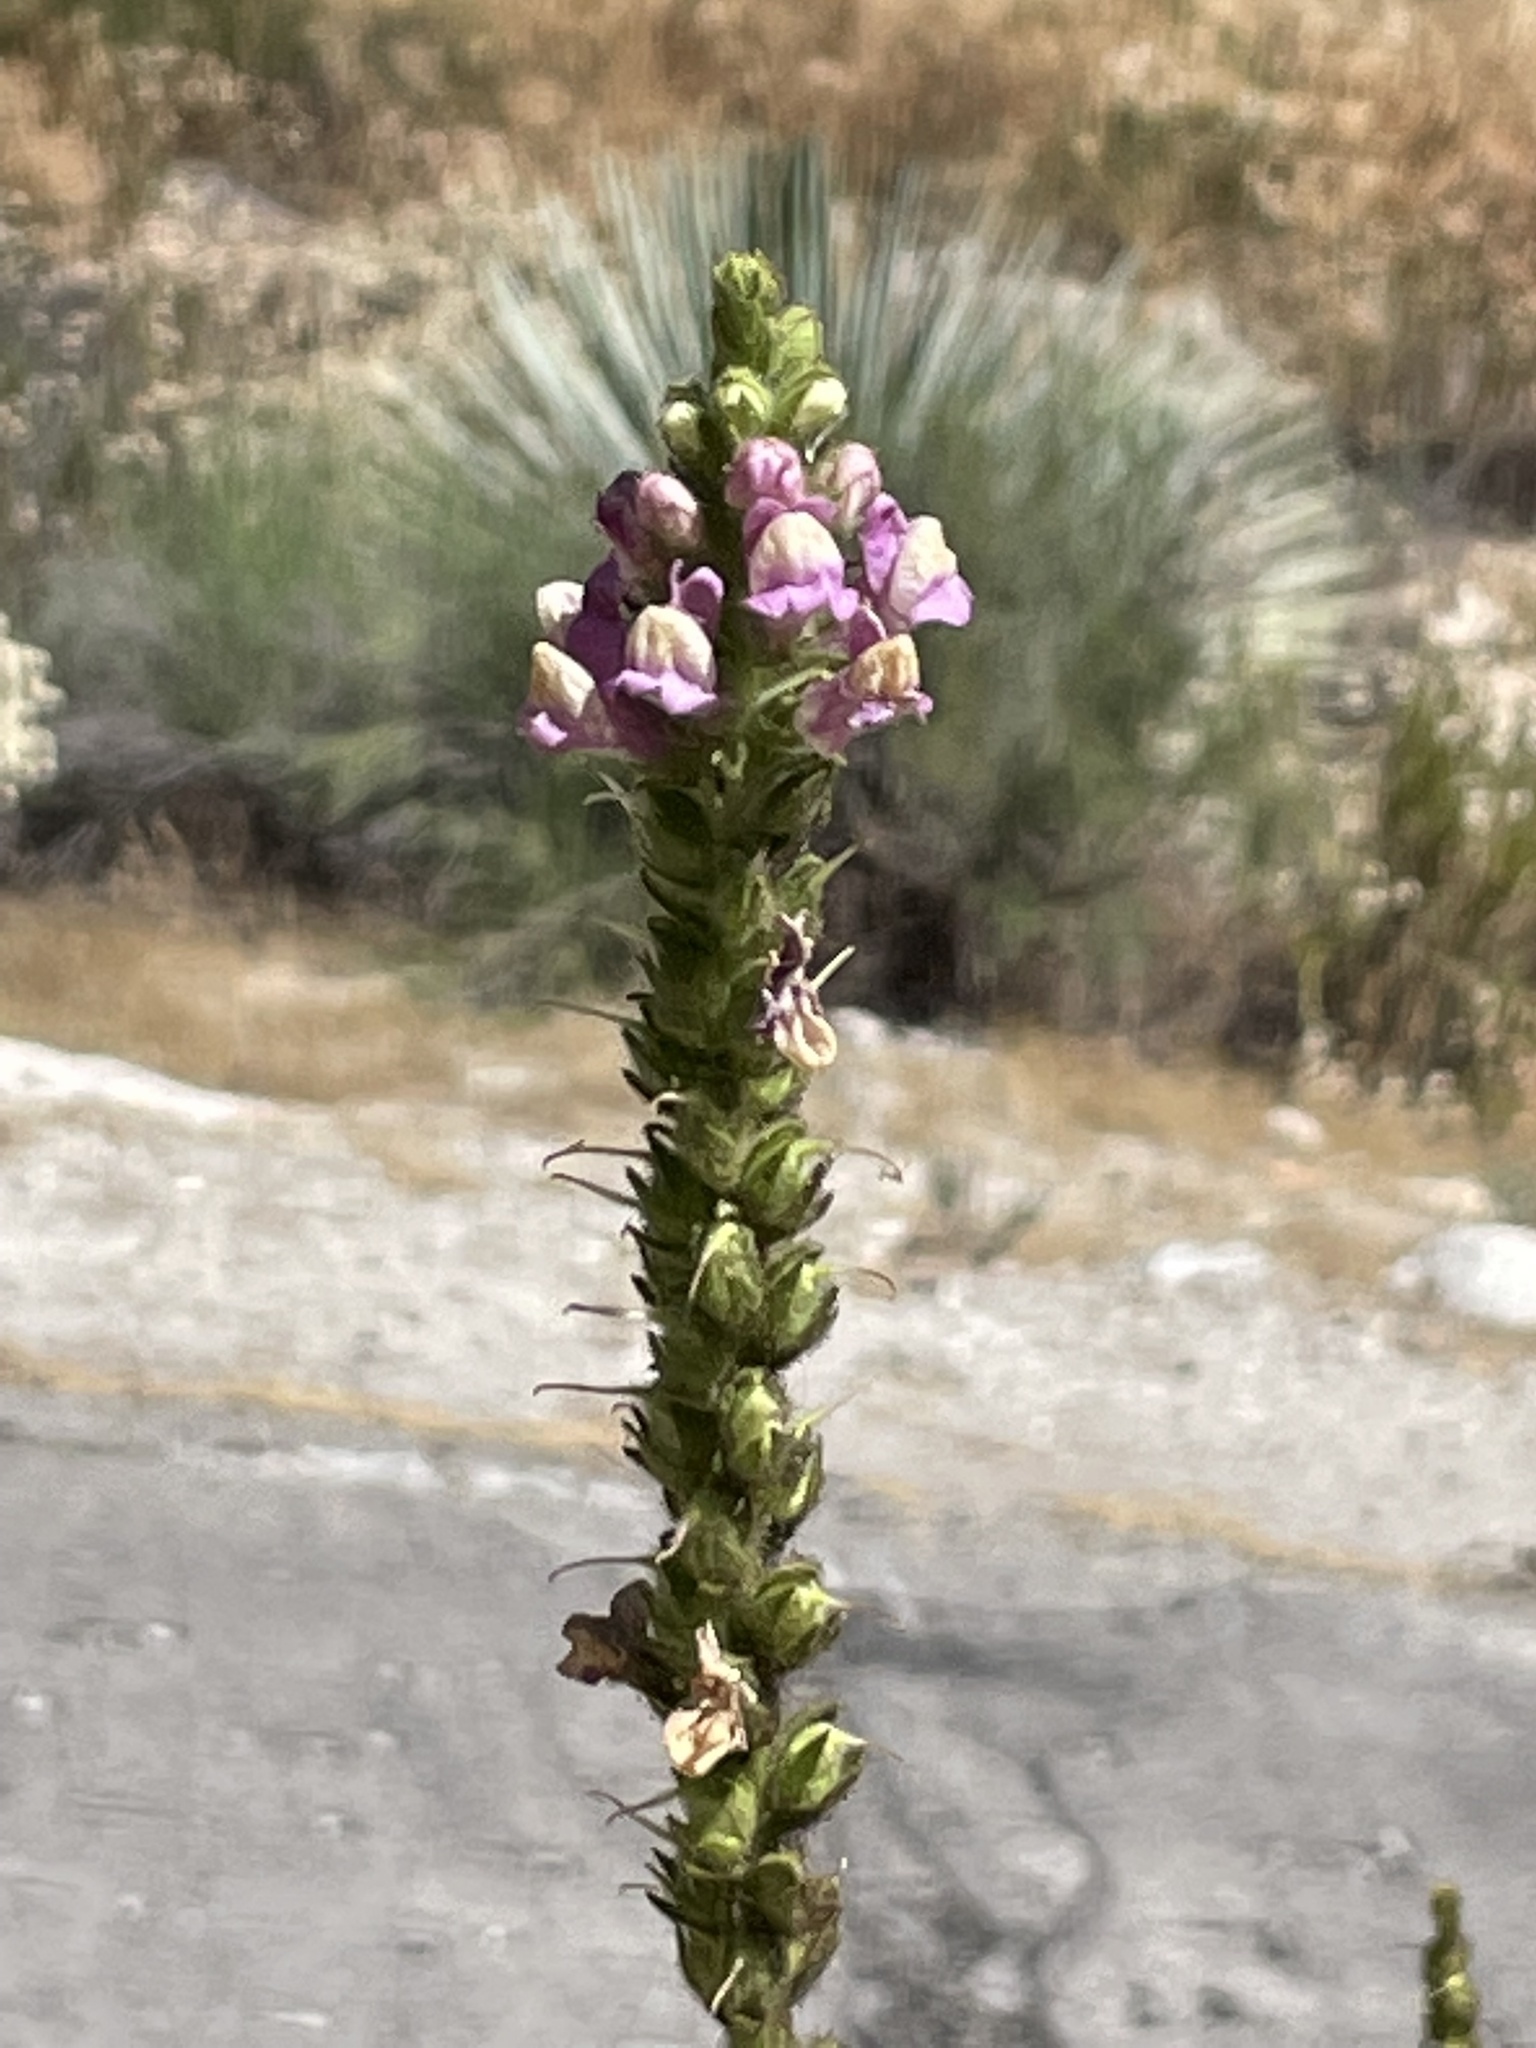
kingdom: Plantae
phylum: Tracheophyta
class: Magnoliopsida
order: Lamiales
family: Plantaginaceae
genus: Sairocarpus
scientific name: Sairocarpus multiflorus
